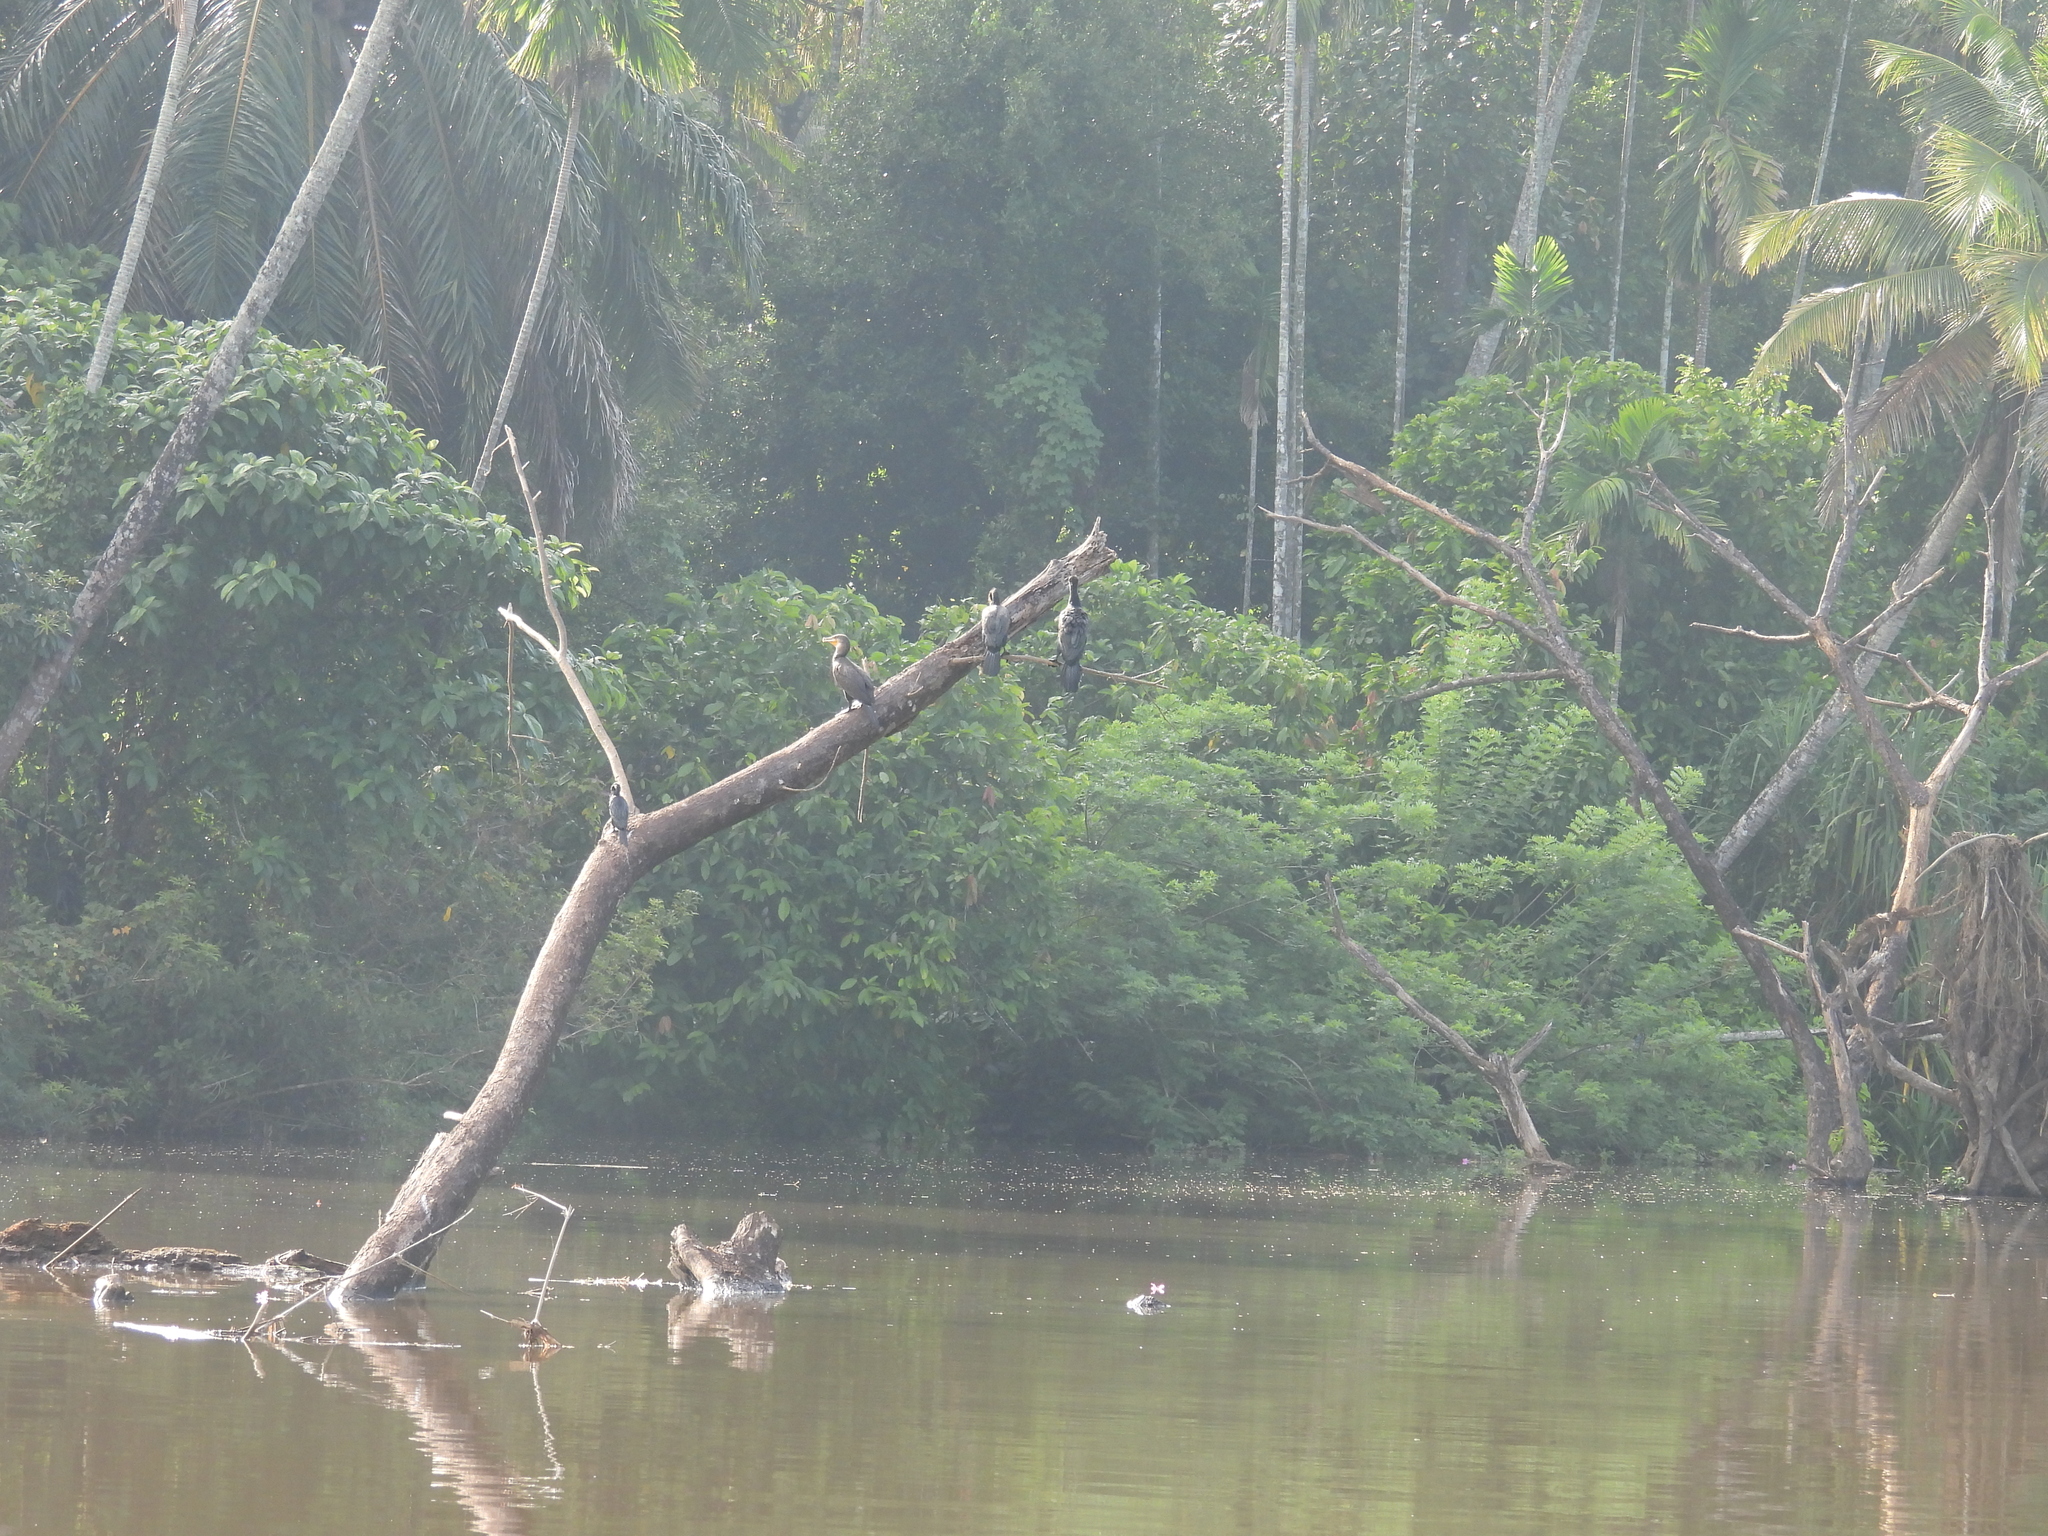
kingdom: Animalia
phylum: Chordata
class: Aves
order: Suliformes
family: Anhingidae
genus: Anhinga
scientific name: Anhinga melanogaster
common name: Oriental darter
